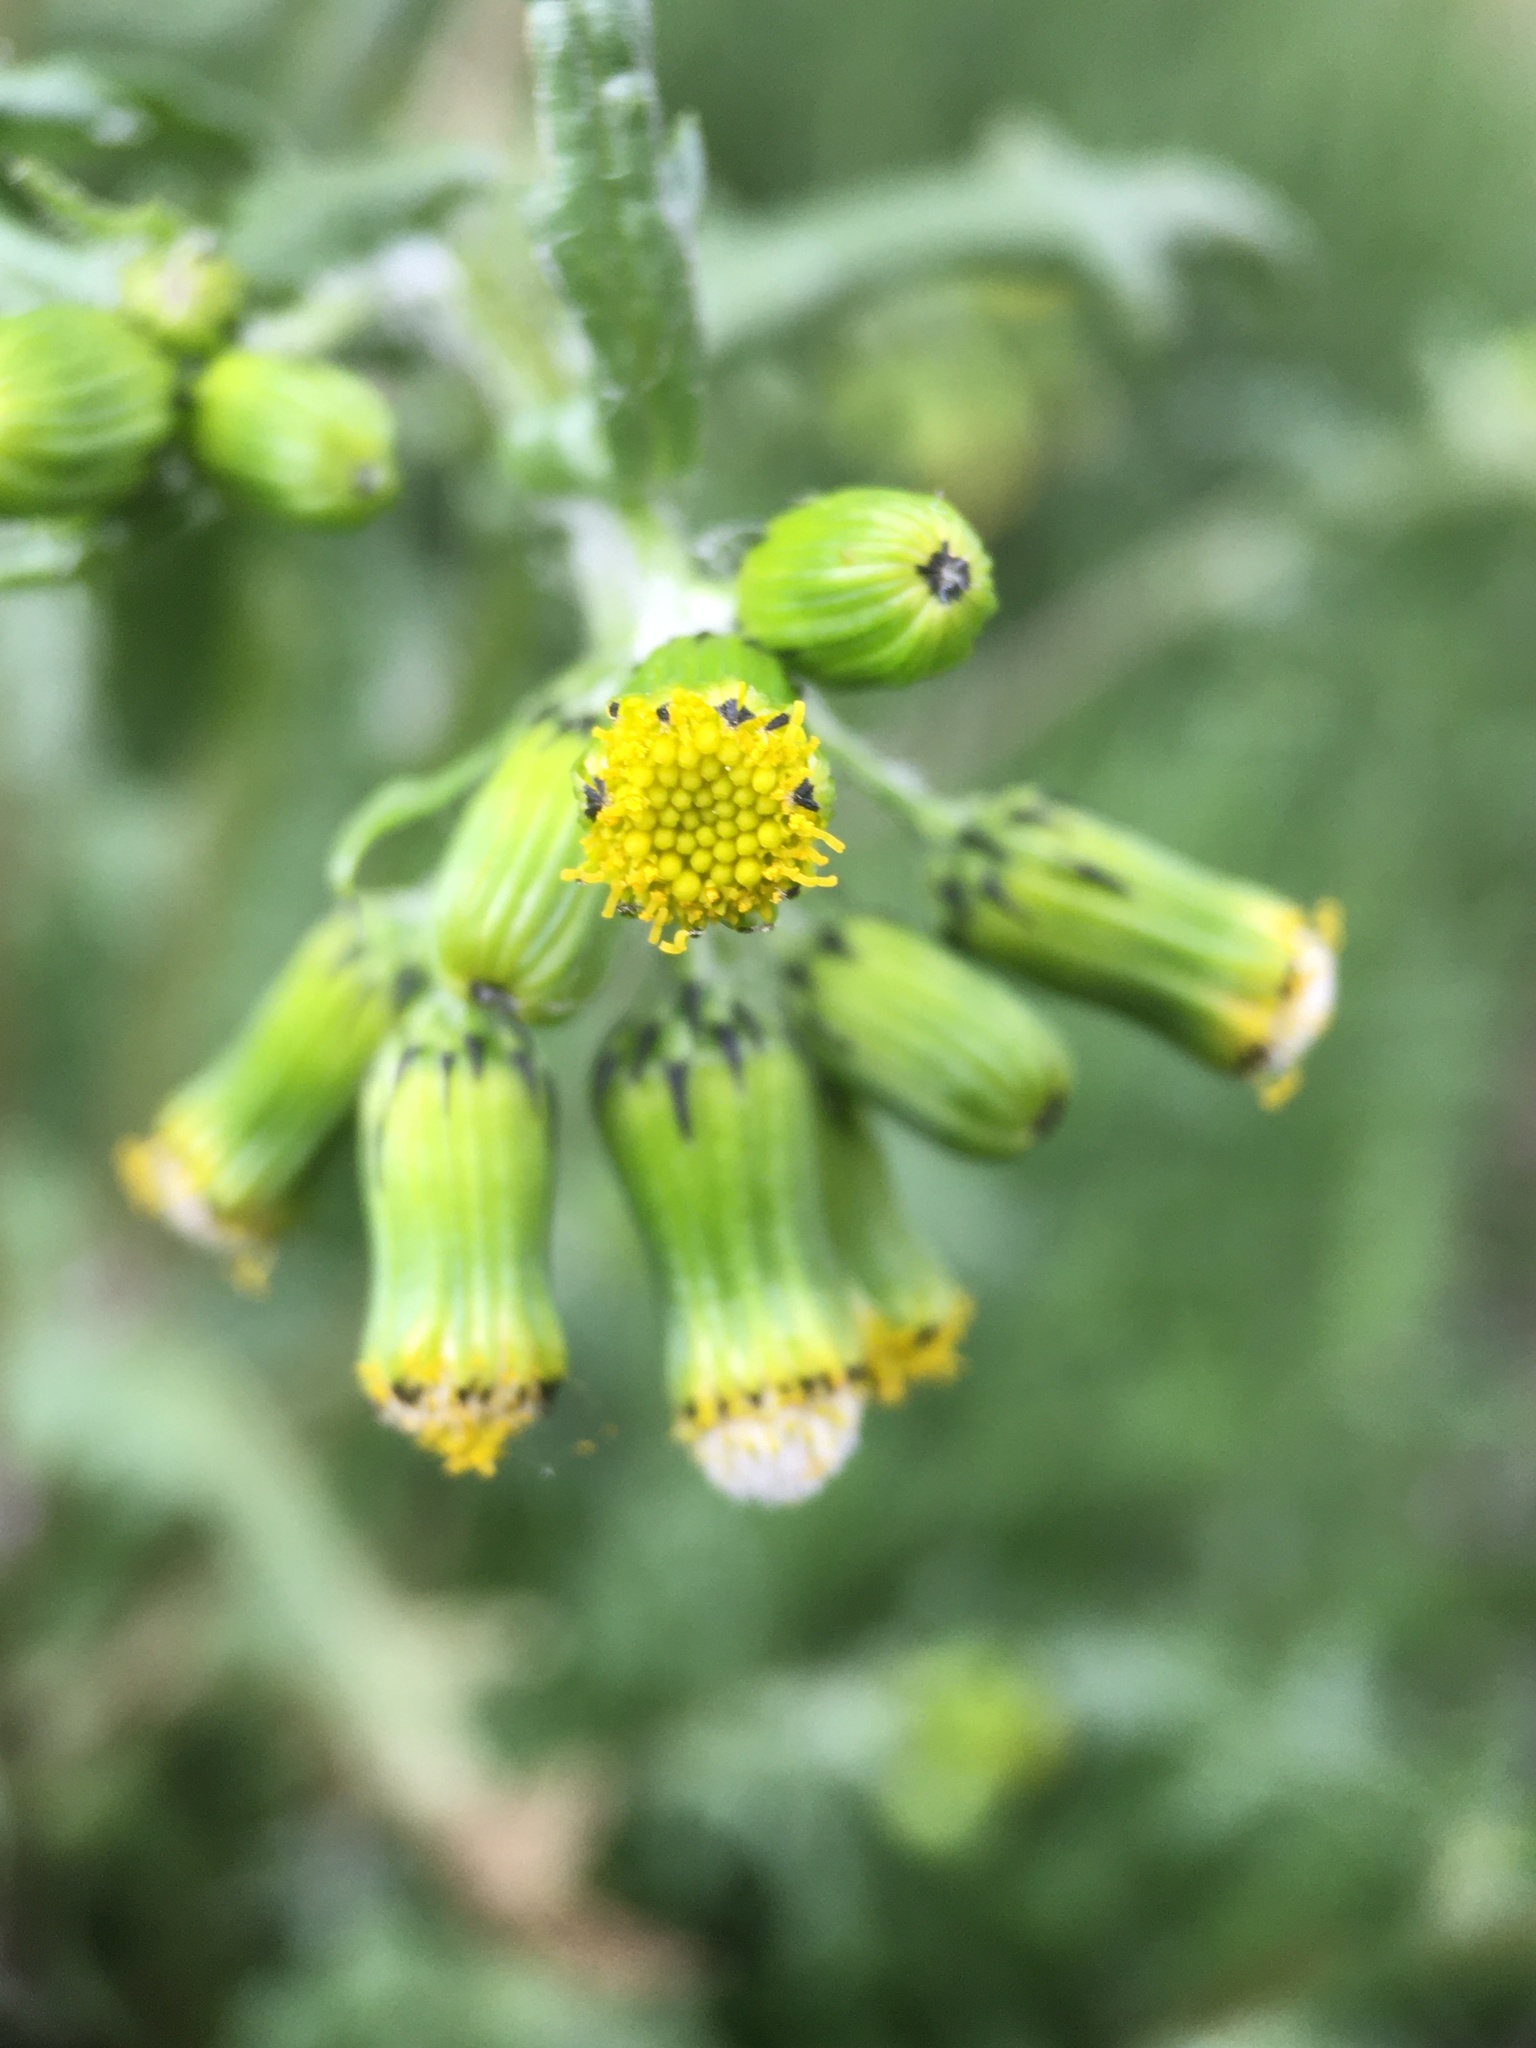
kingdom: Plantae
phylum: Tracheophyta
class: Magnoliopsida
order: Asterales
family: Asteraceae
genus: Senecio
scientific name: Senecio vulgaris
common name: Old-man-in-the-spring
